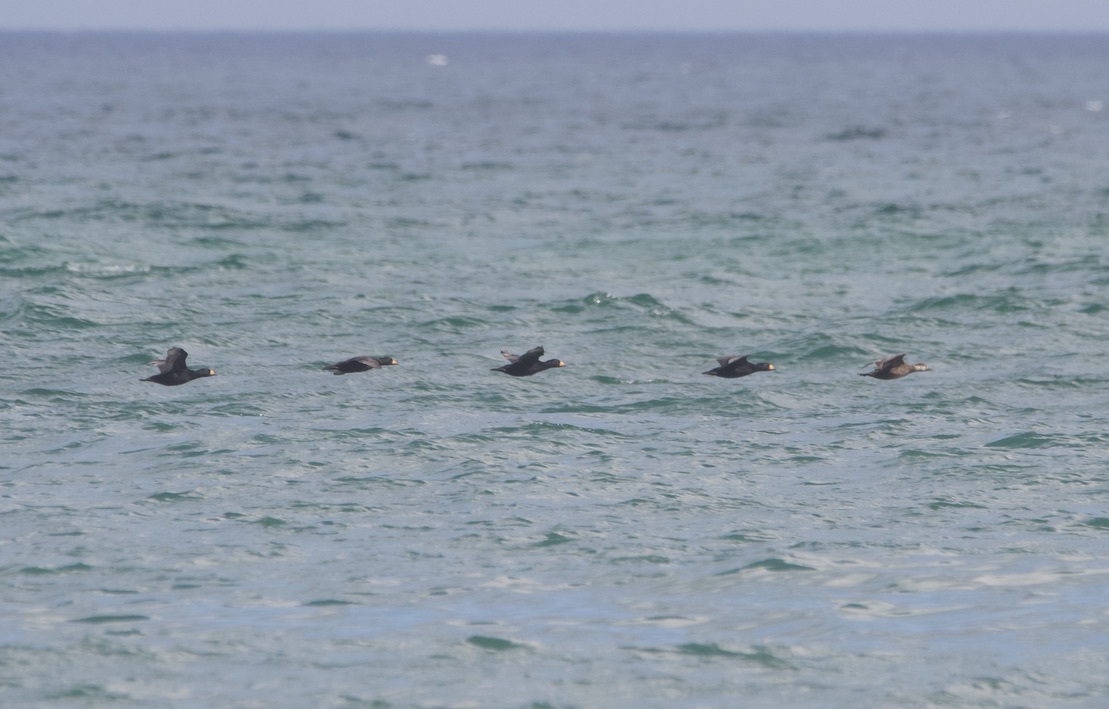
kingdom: Animalia
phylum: Chordata
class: Aves
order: Anseriformes
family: Anatidae
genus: Melanitta
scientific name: Melanitta americana
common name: Black scoter
